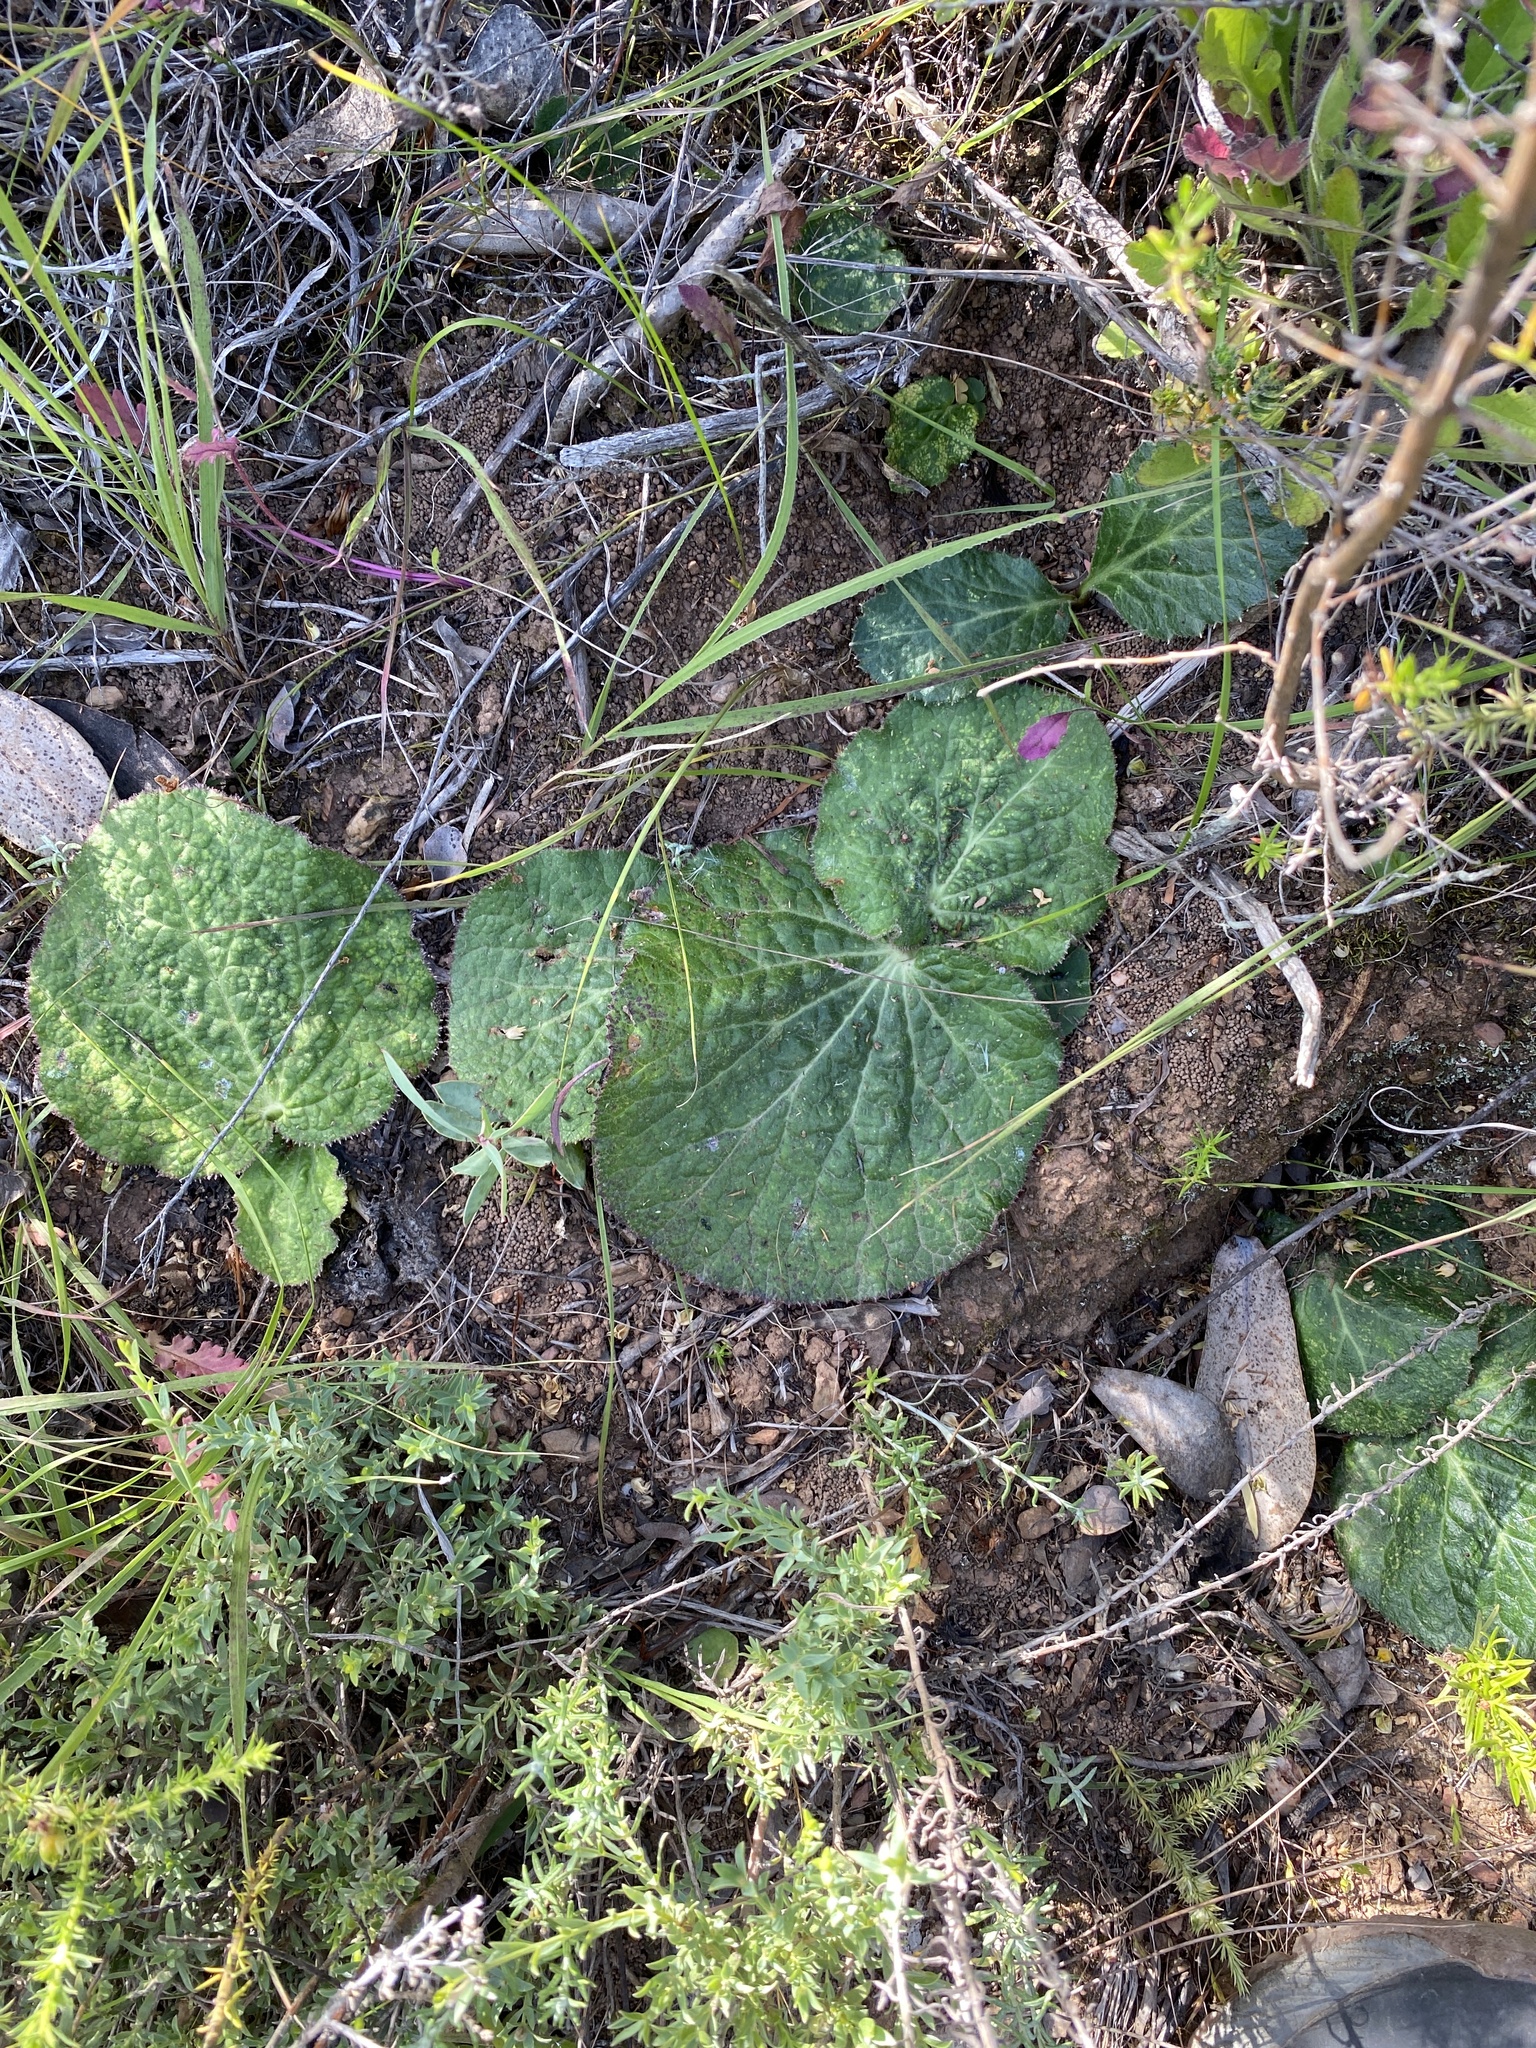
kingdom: Plantae
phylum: Tracheophyta
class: Magnoliopsida
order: Apiales
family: Apiaceae
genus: Lichtensteinia
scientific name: Lichtensteinia latifolia
